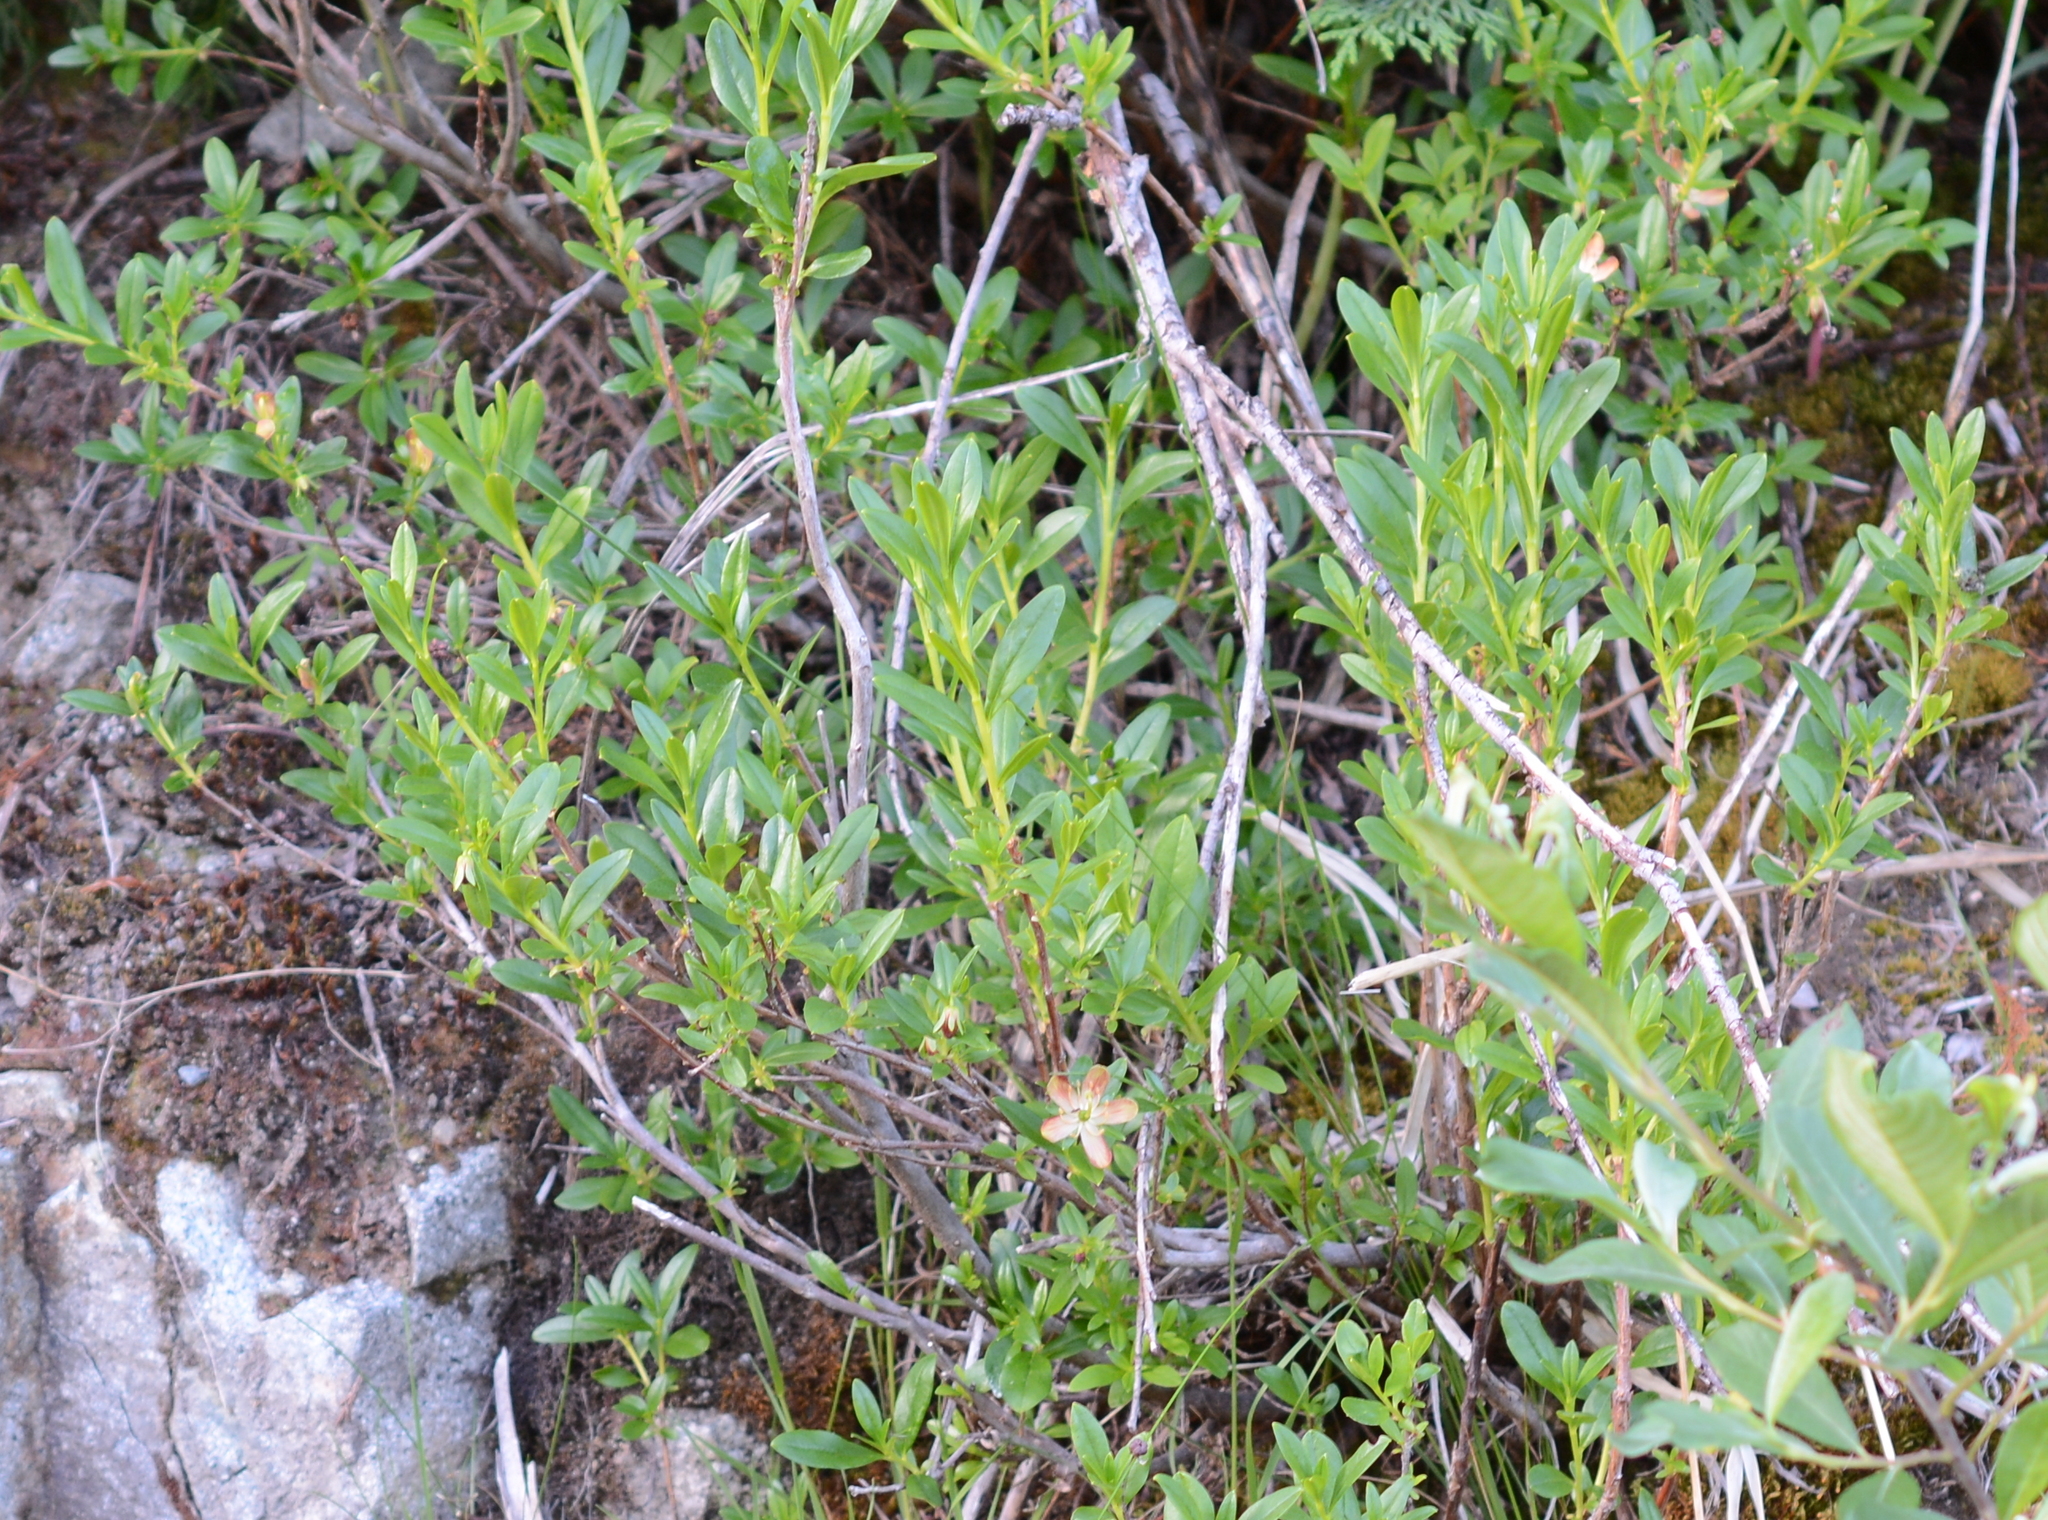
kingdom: Plantae
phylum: Tracheophyta
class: Magnoliopsida
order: Ericales
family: Ericaceae
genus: Elliottia
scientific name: Elliottia pyroliflora
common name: Copperbush
